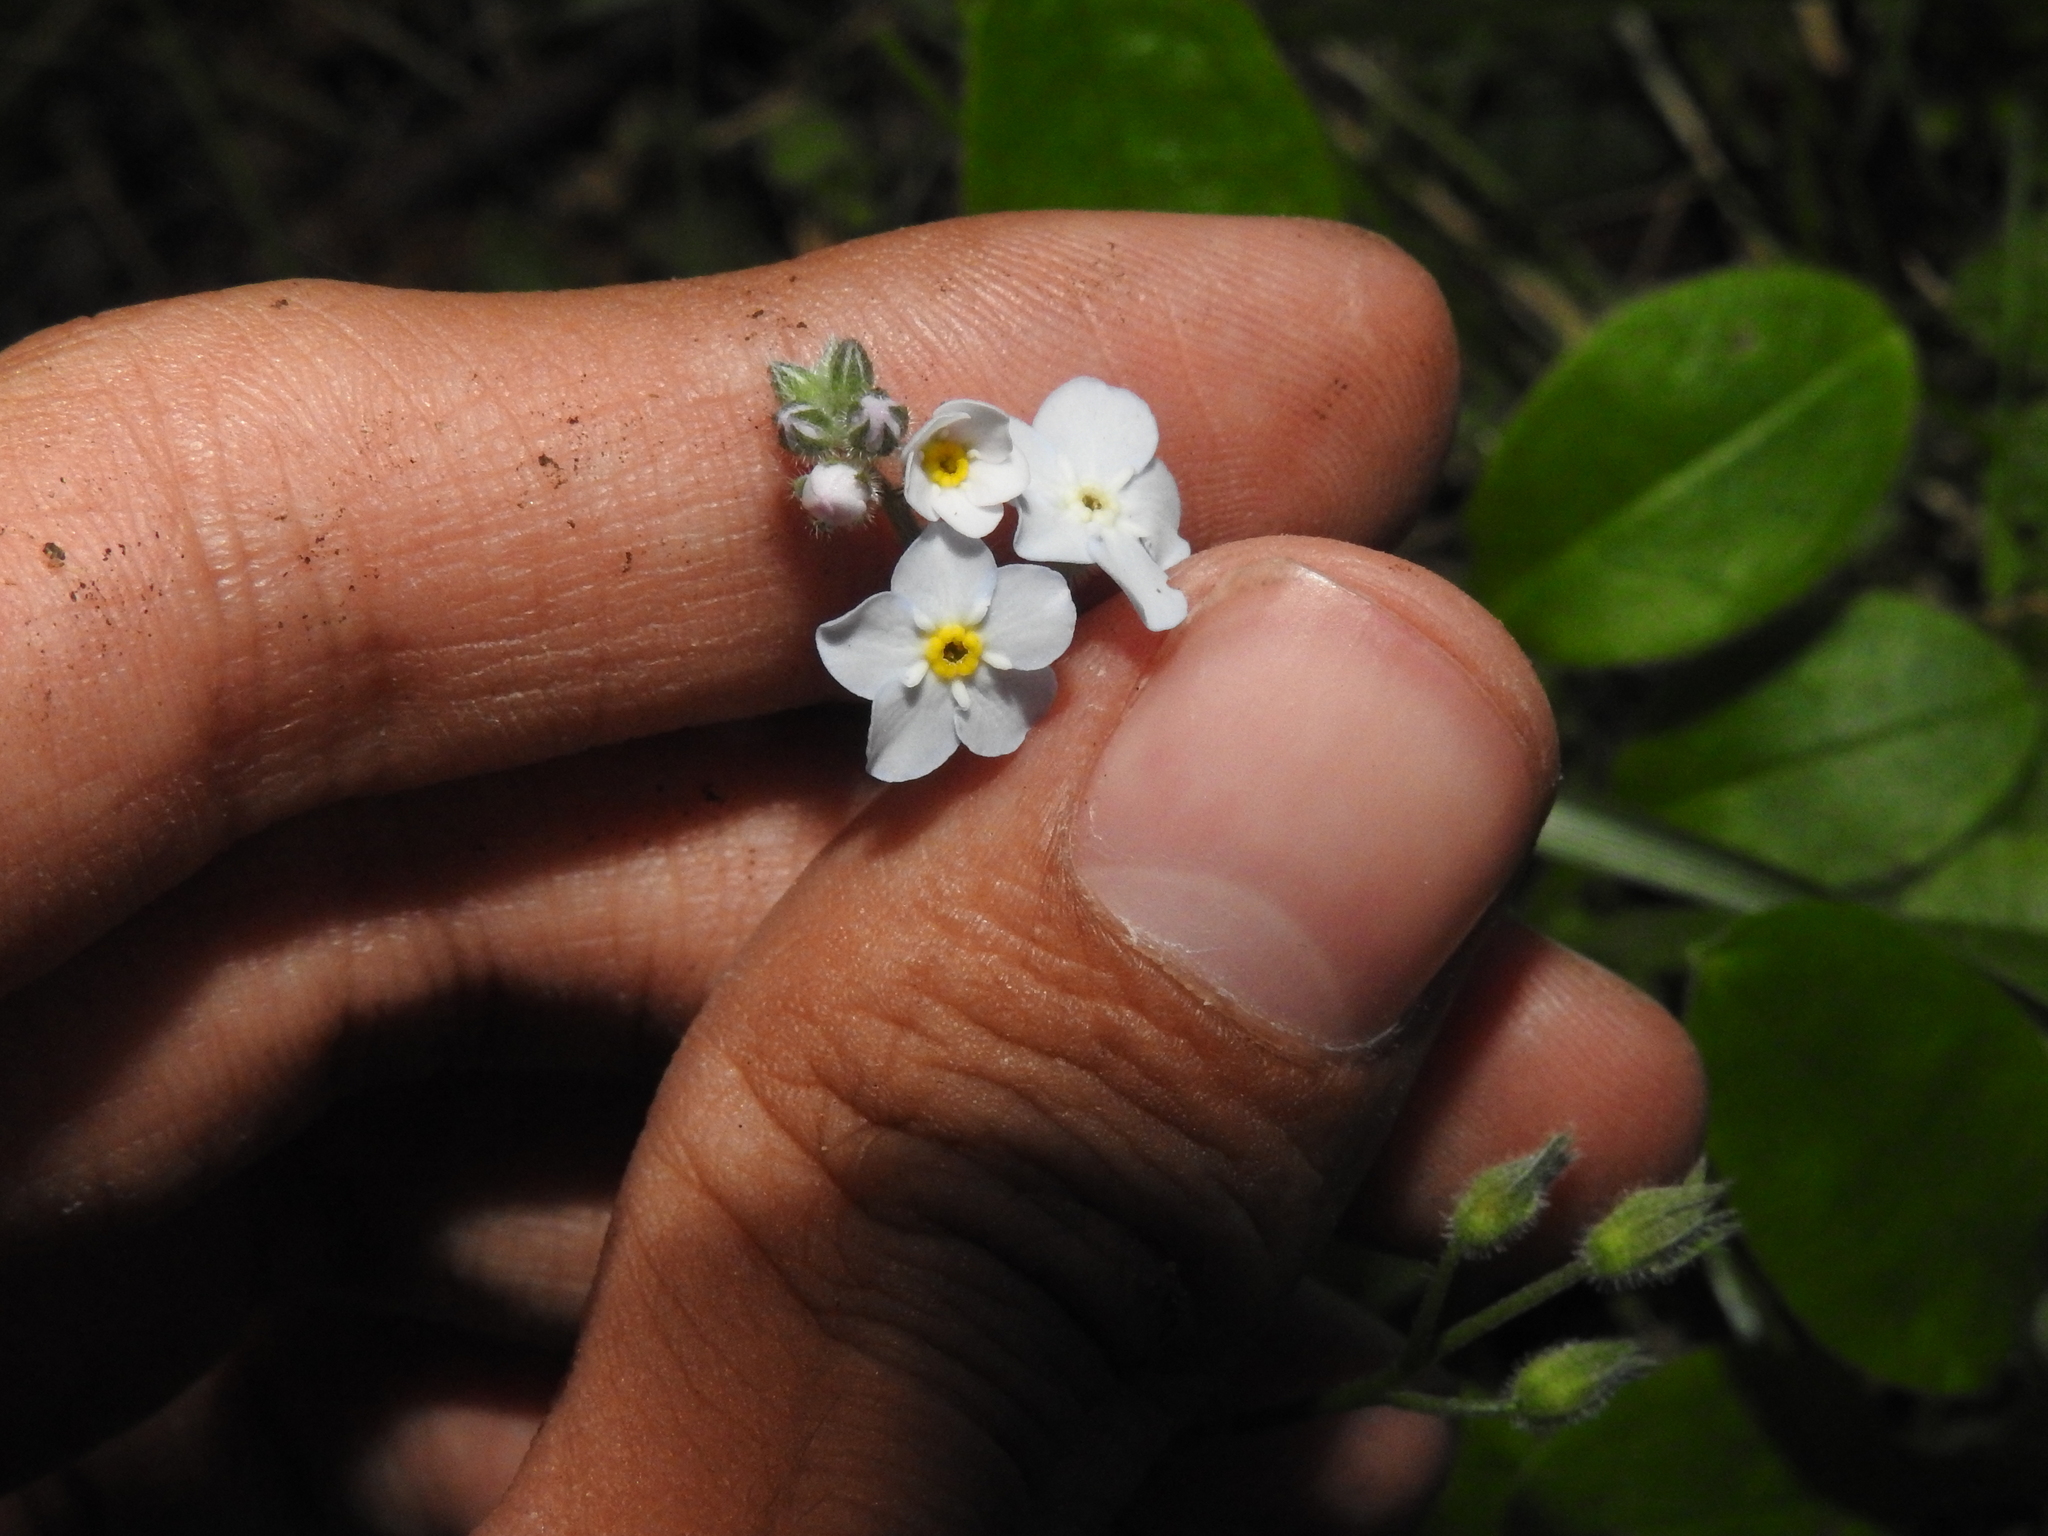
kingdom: Plantae
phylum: Tracheophyta
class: Magnoliopsida
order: Boraginales
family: Boraginaceae
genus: Myosotis
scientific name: Myosotis latifolia
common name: Broadleaf forget-me-not
